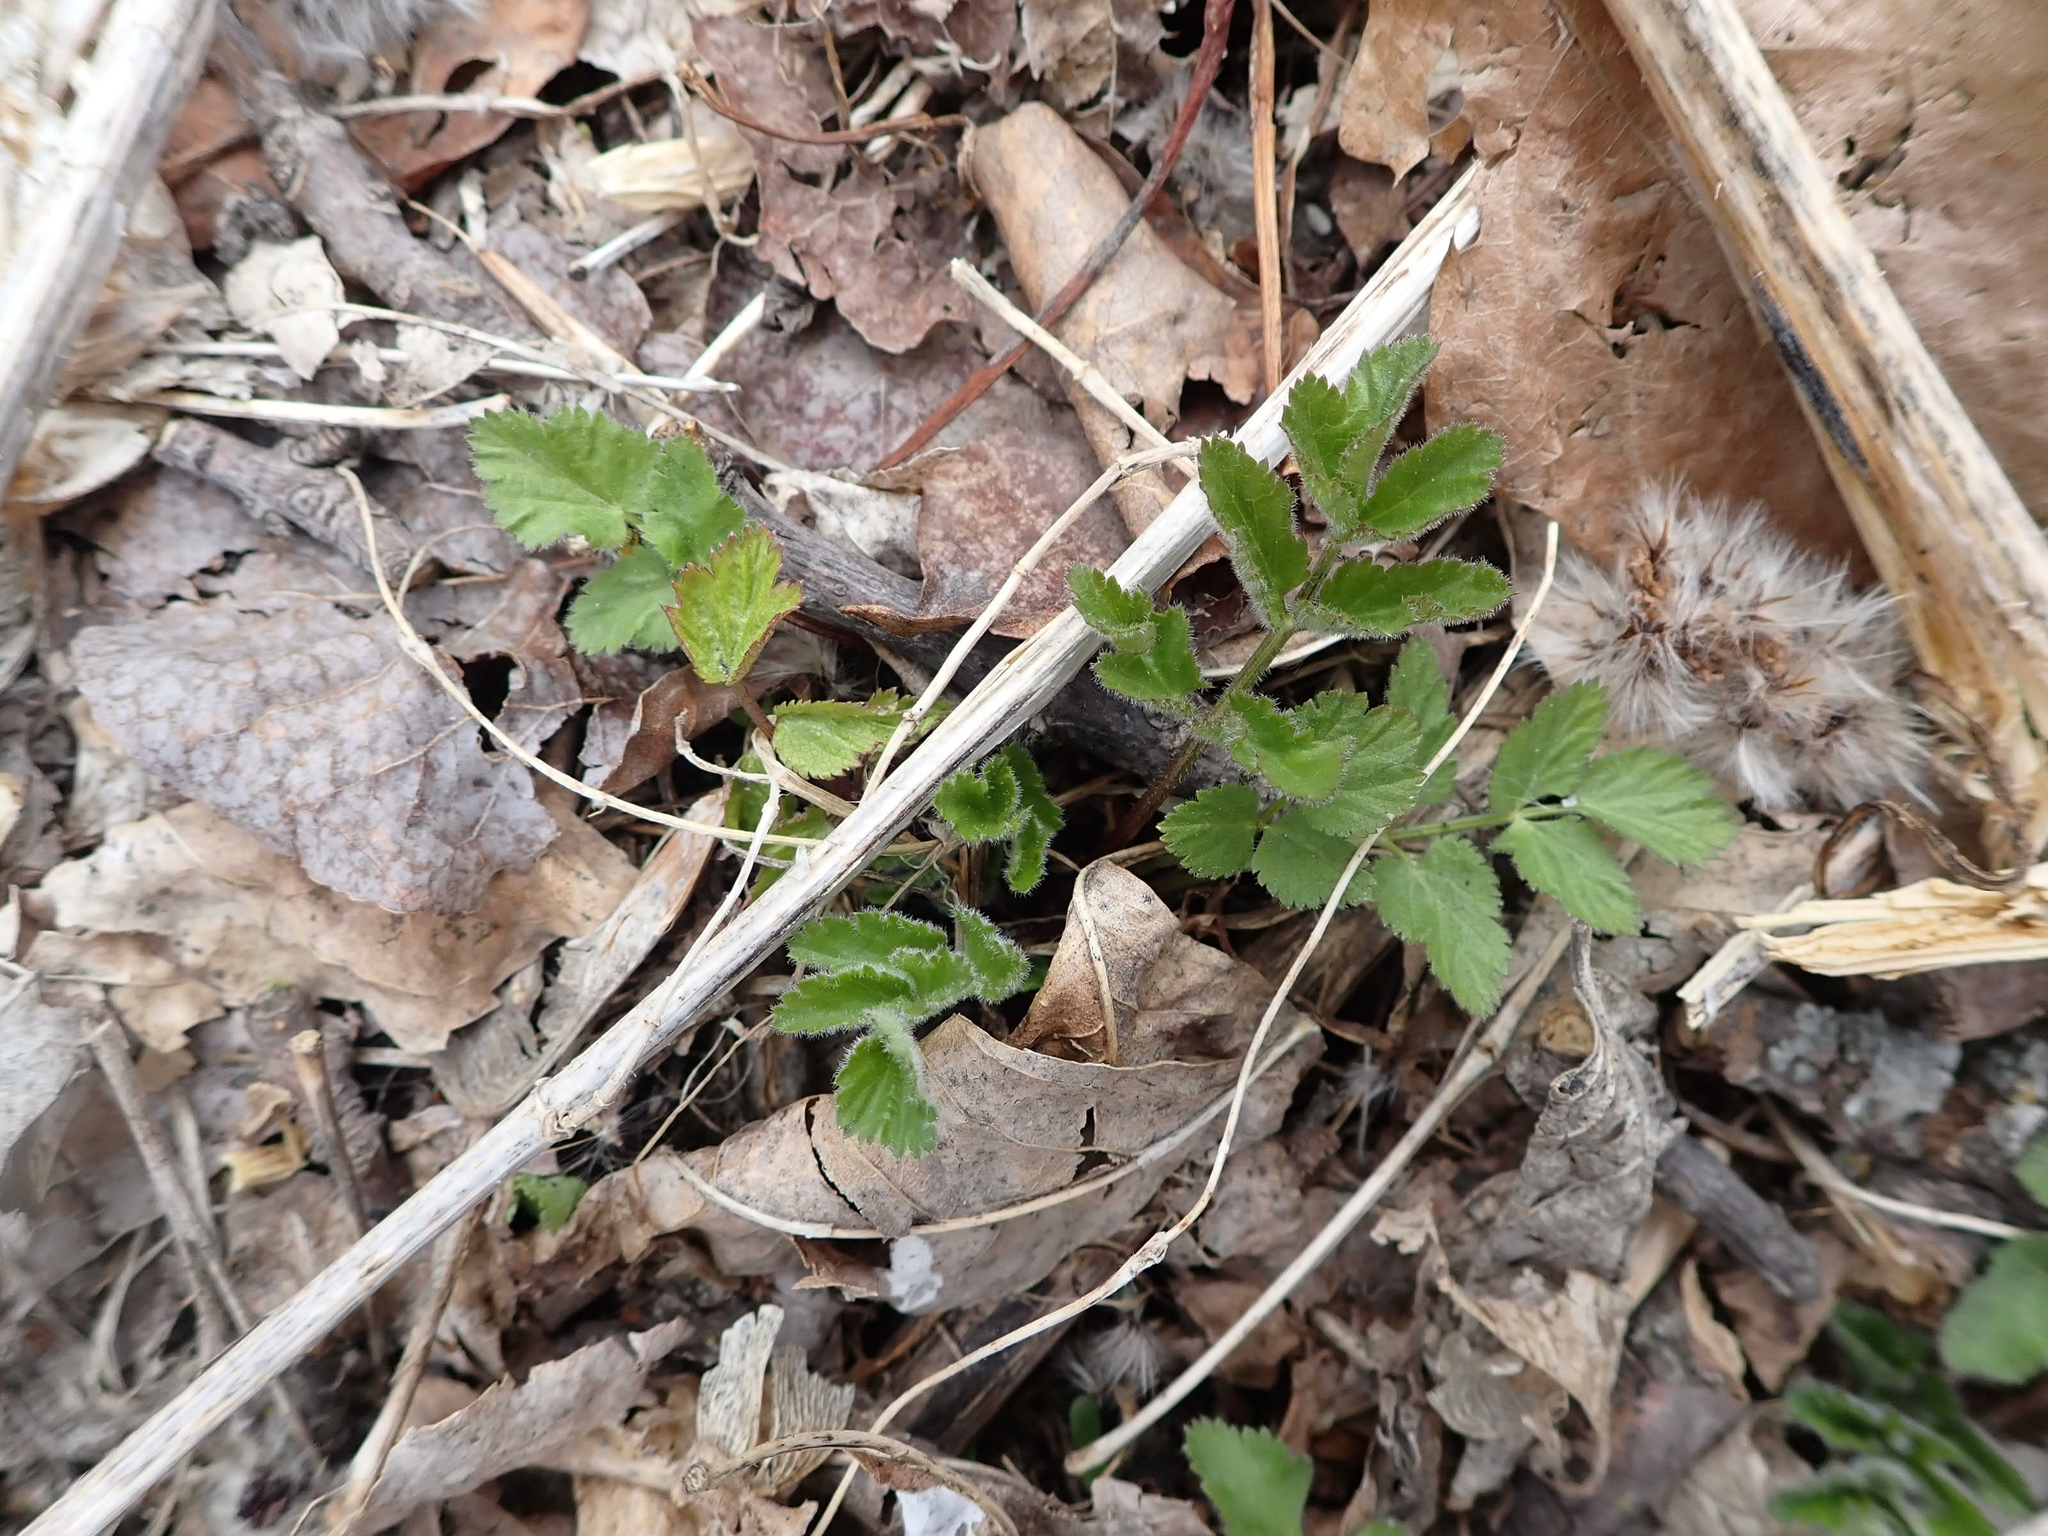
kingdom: Plantae
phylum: Tracheophyta
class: Magnoliopsida
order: Apiales
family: Apiaceae
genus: Pastinaca
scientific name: Pastinaca sativa
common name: Wild parsnip
